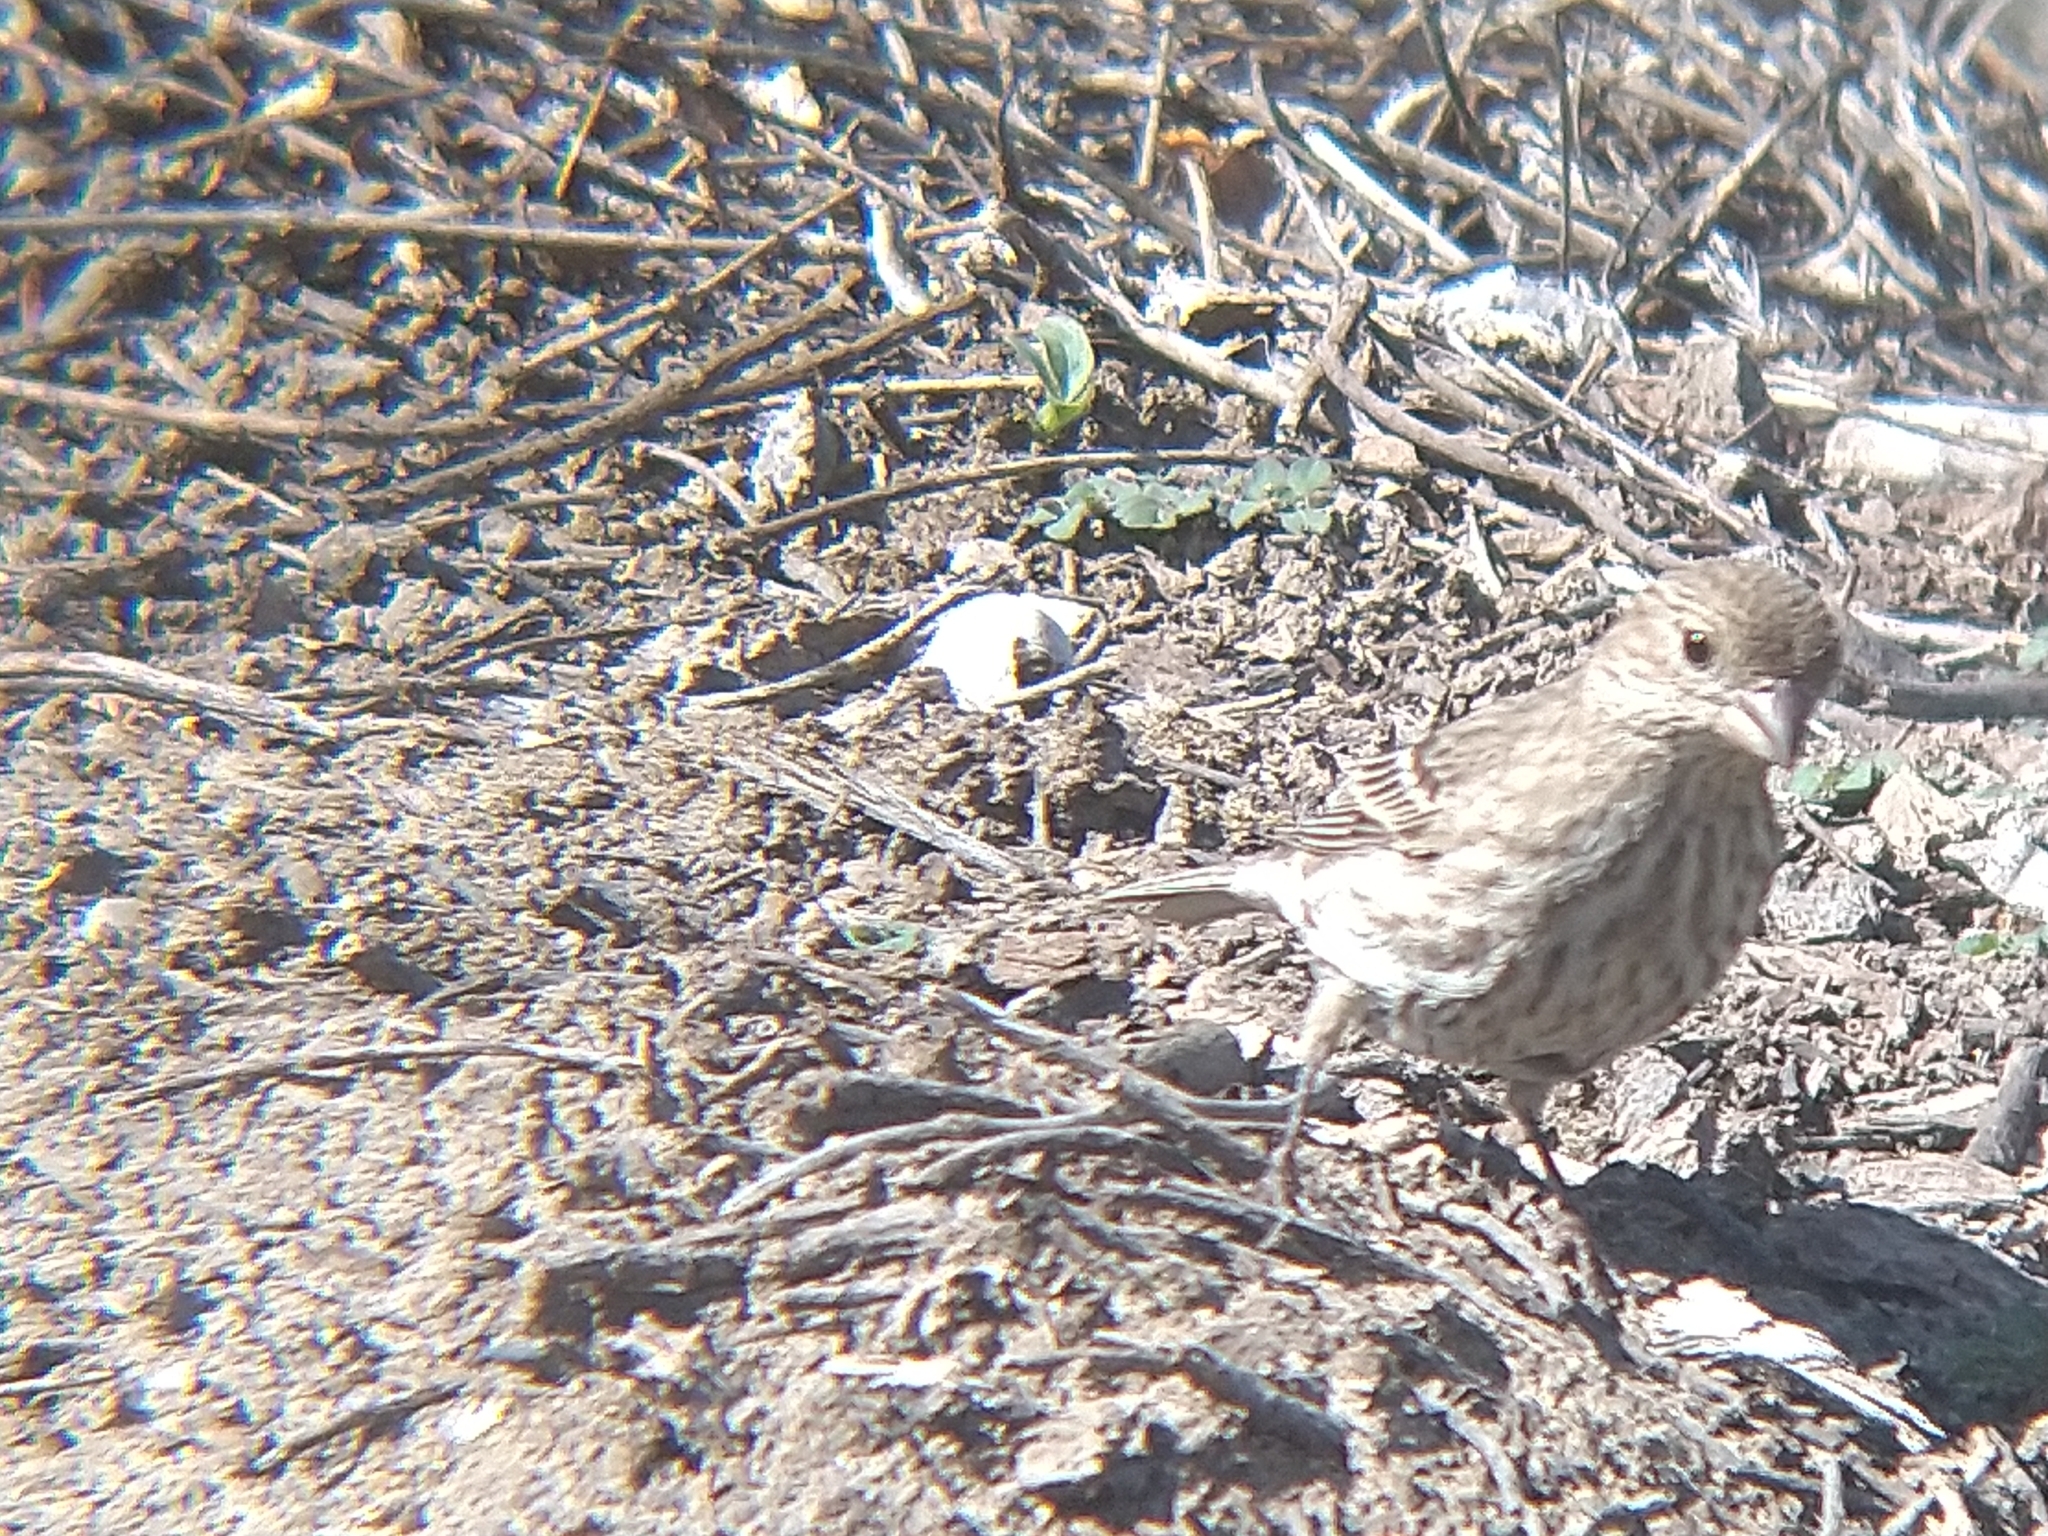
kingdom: Animalia
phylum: Chordata
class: Aves
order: Passeriformes
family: Fringillidae
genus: Haemorhous
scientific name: Haemorhous mexicanus
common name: House finch
